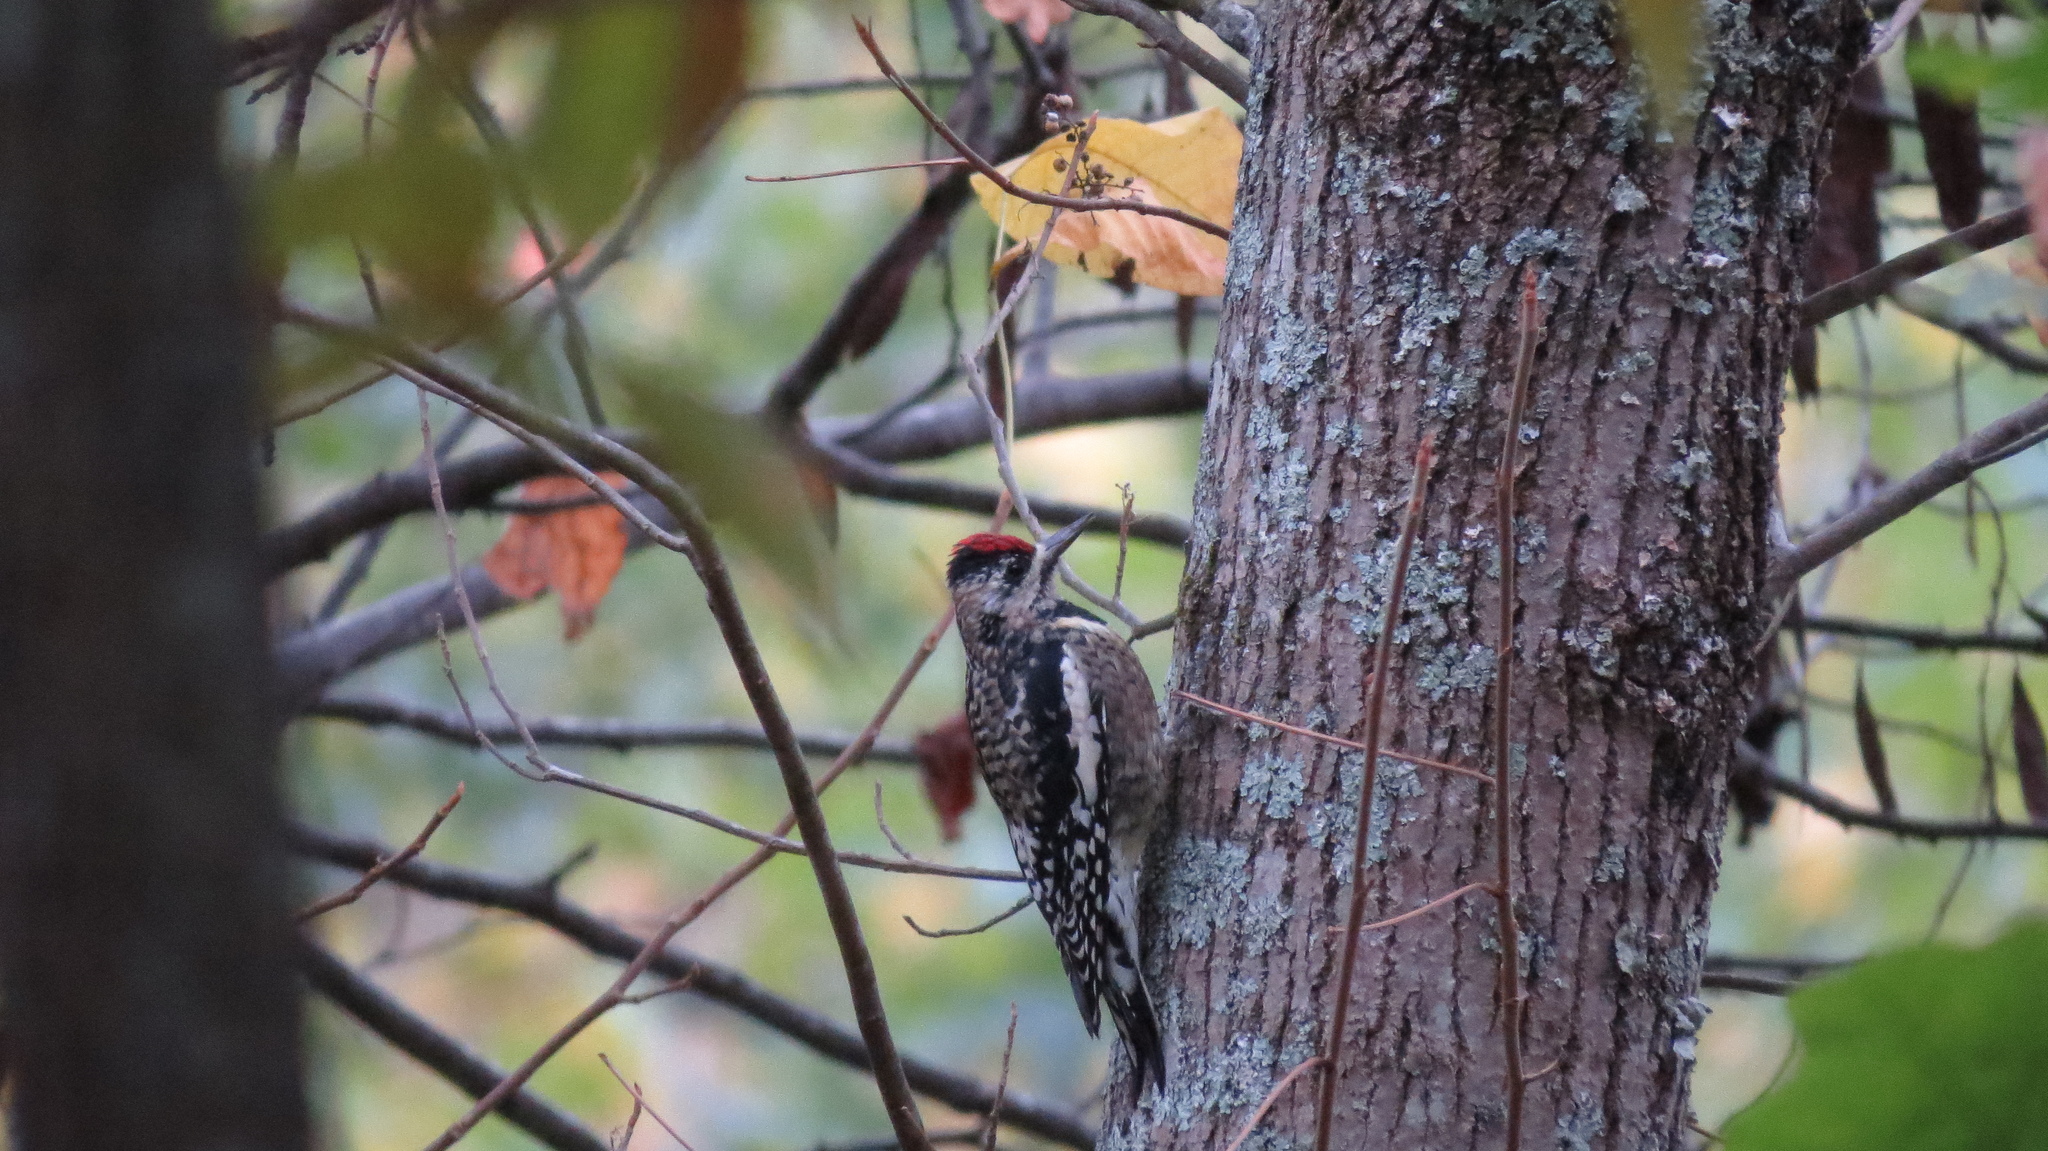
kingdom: Animalia
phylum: Chordata
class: Aves
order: Piciformes
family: Picidae
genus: Sphyrapicus
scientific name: Sphyrapicus varius
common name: Yellow-bellied sapsucker
